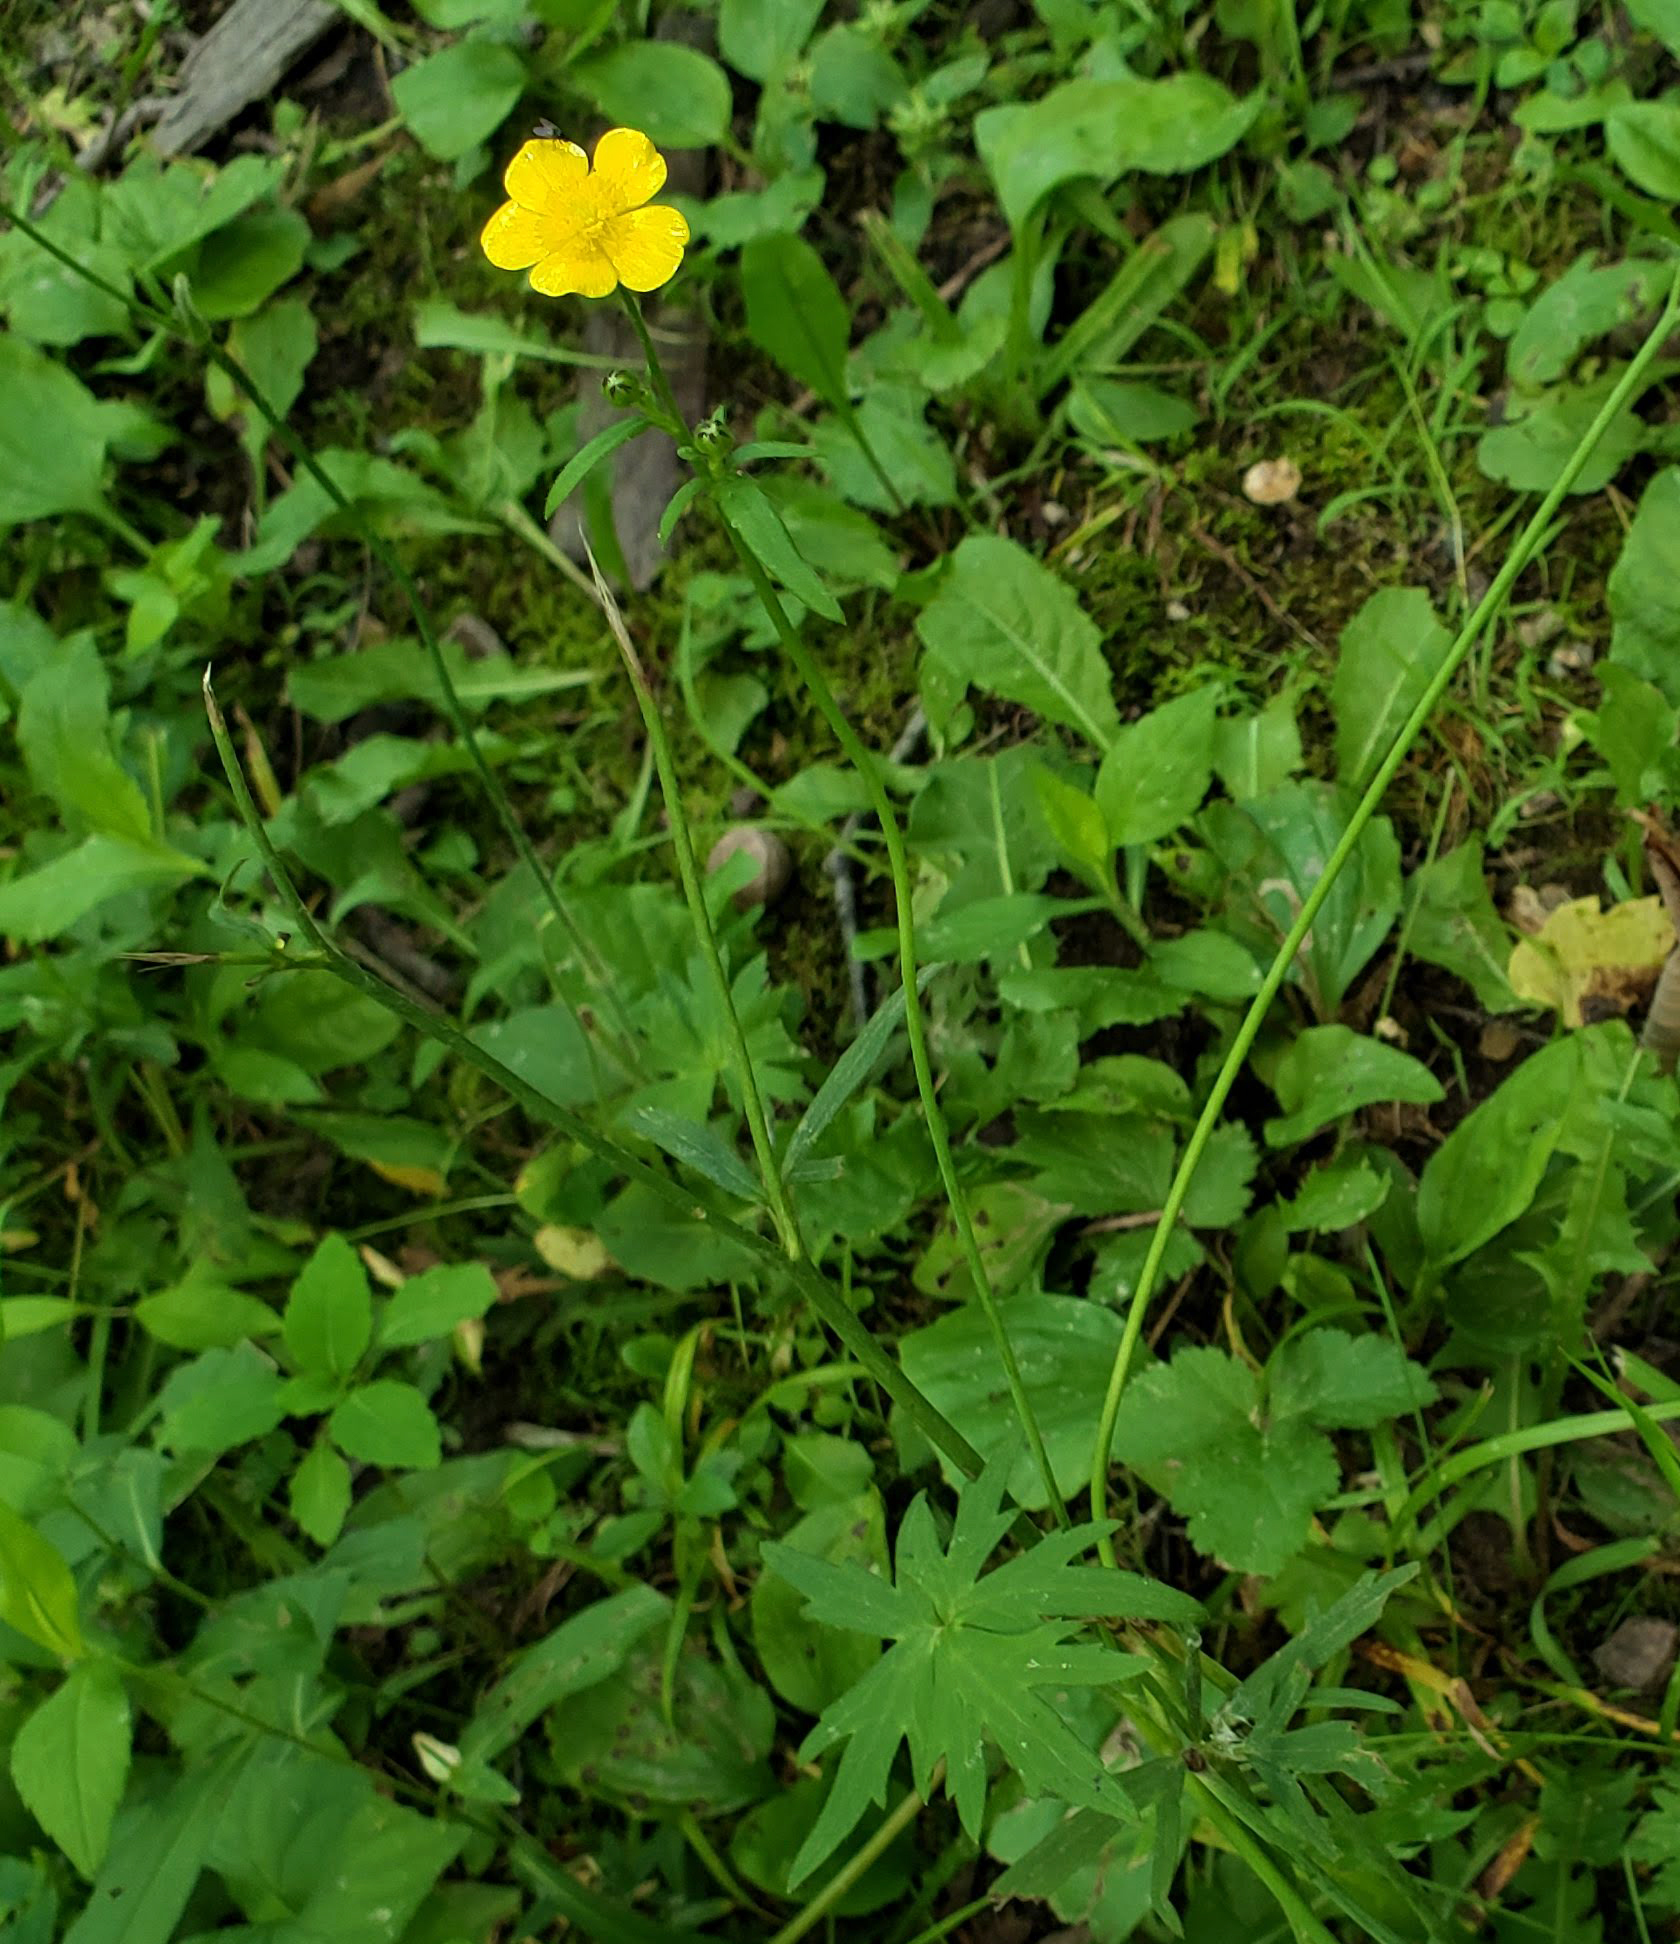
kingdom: Plantae
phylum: Tracheophyta
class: Magnoliopsida
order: Ranunculales
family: Ranunculaceae
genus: Ranunculus
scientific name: Ranunculus acris
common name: Meadow buttercup
